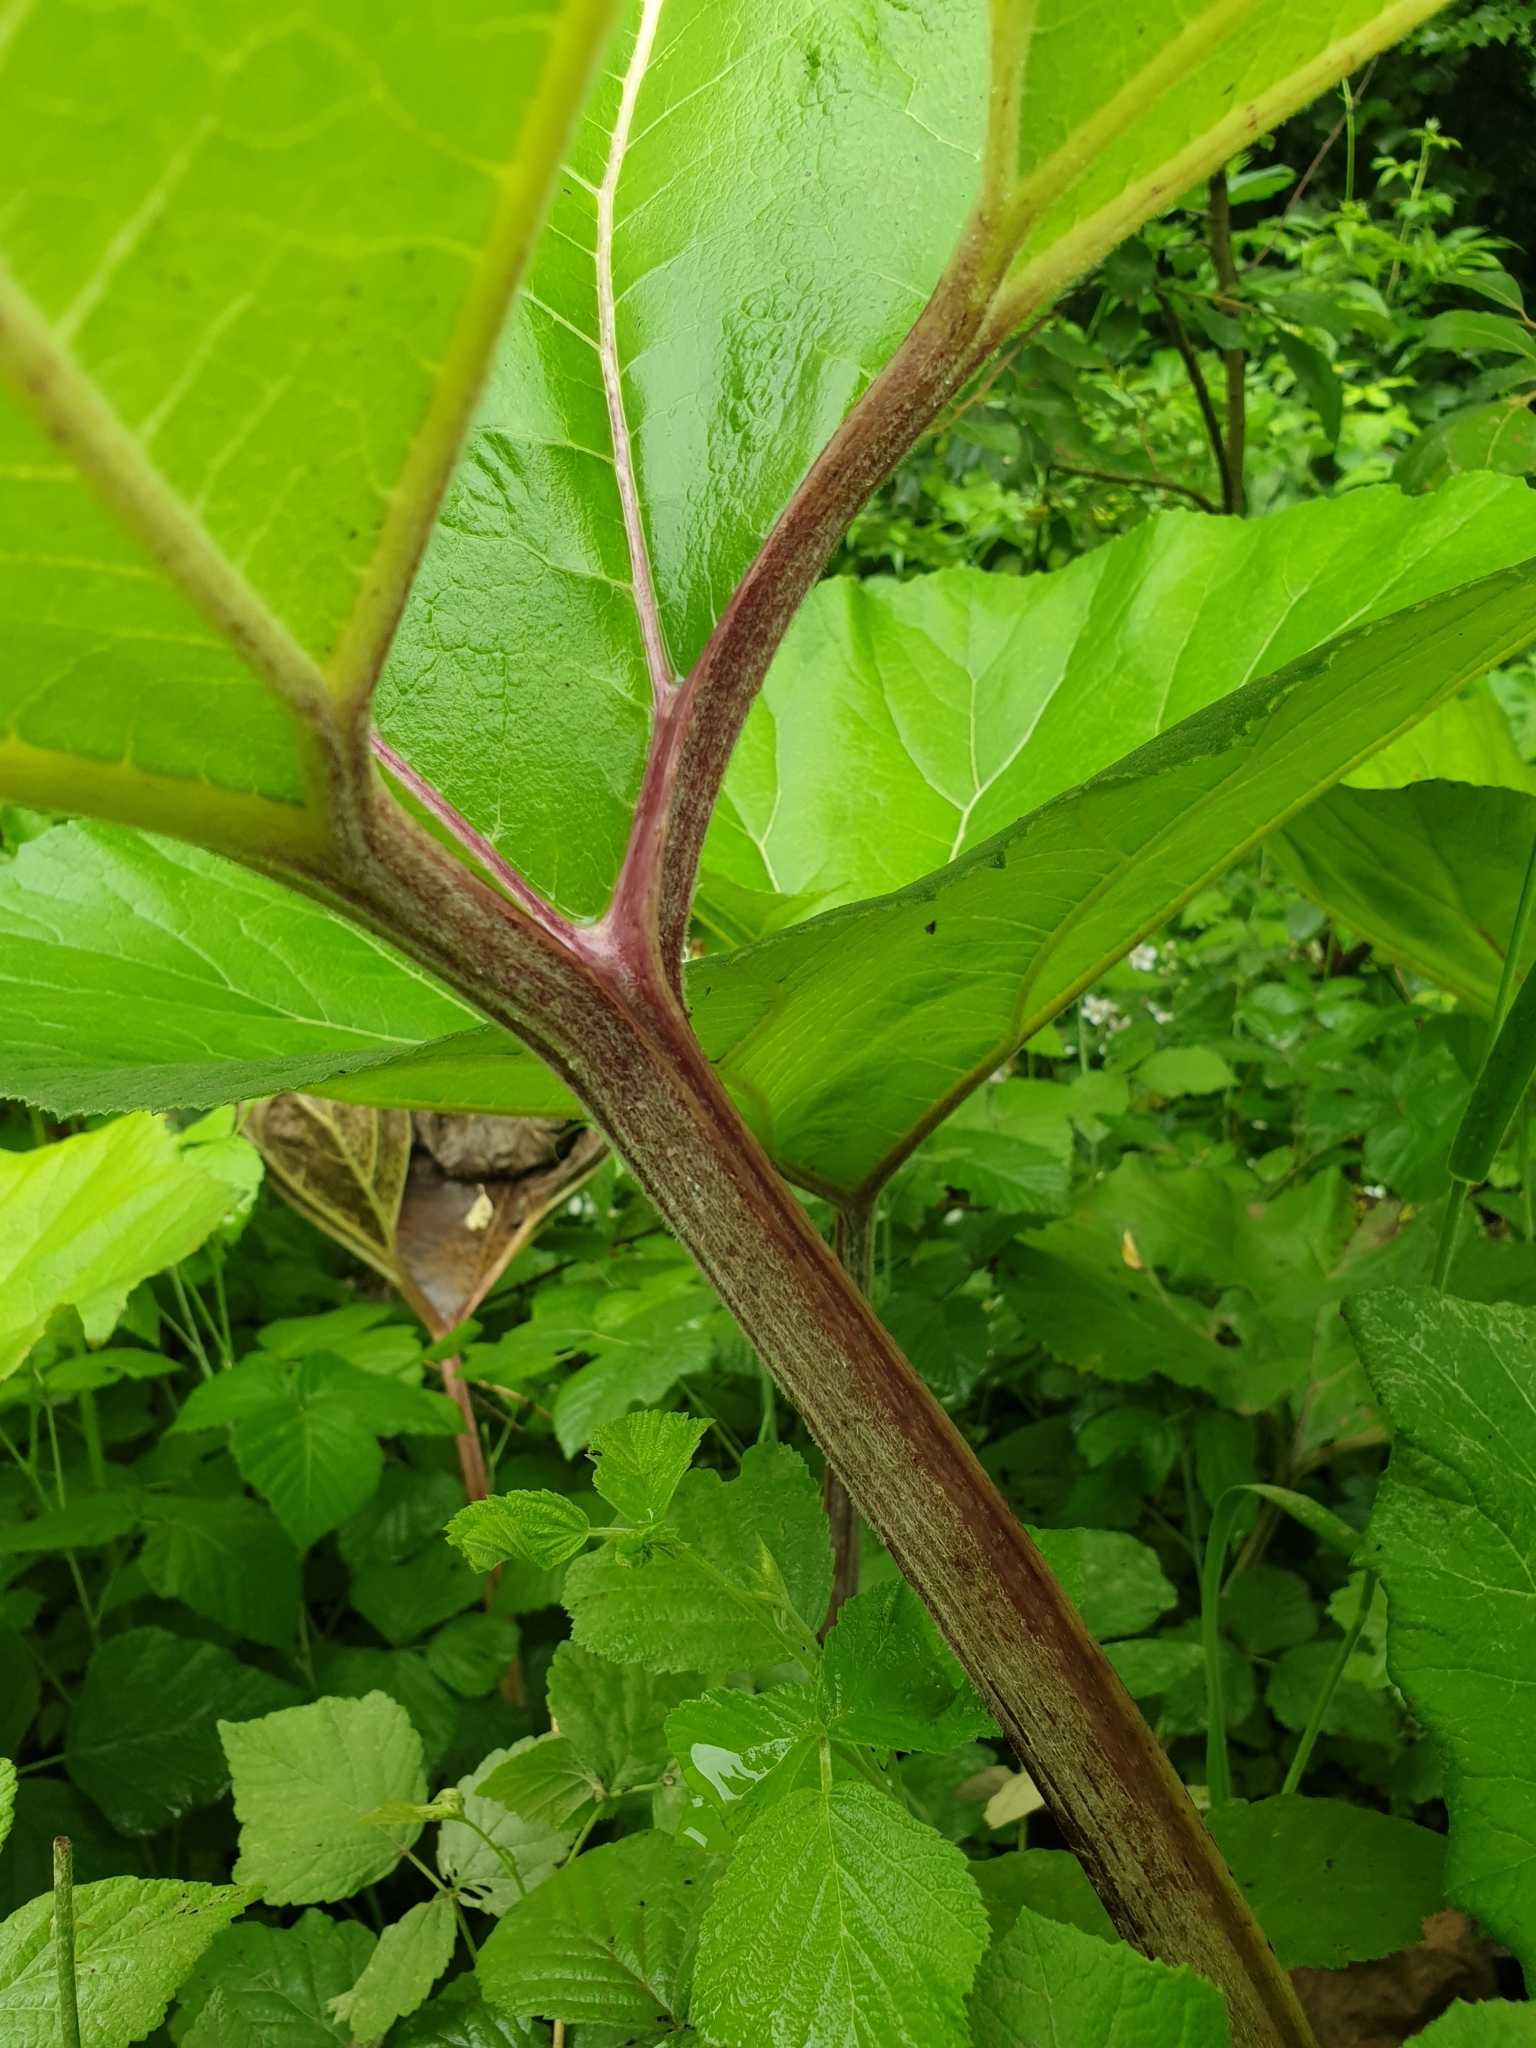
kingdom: Plantae
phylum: Tracheophyta
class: Magnoliopsida
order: Asterales
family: Asteraceae
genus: Petasites
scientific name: Petasites hybridus
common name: Butterbur
